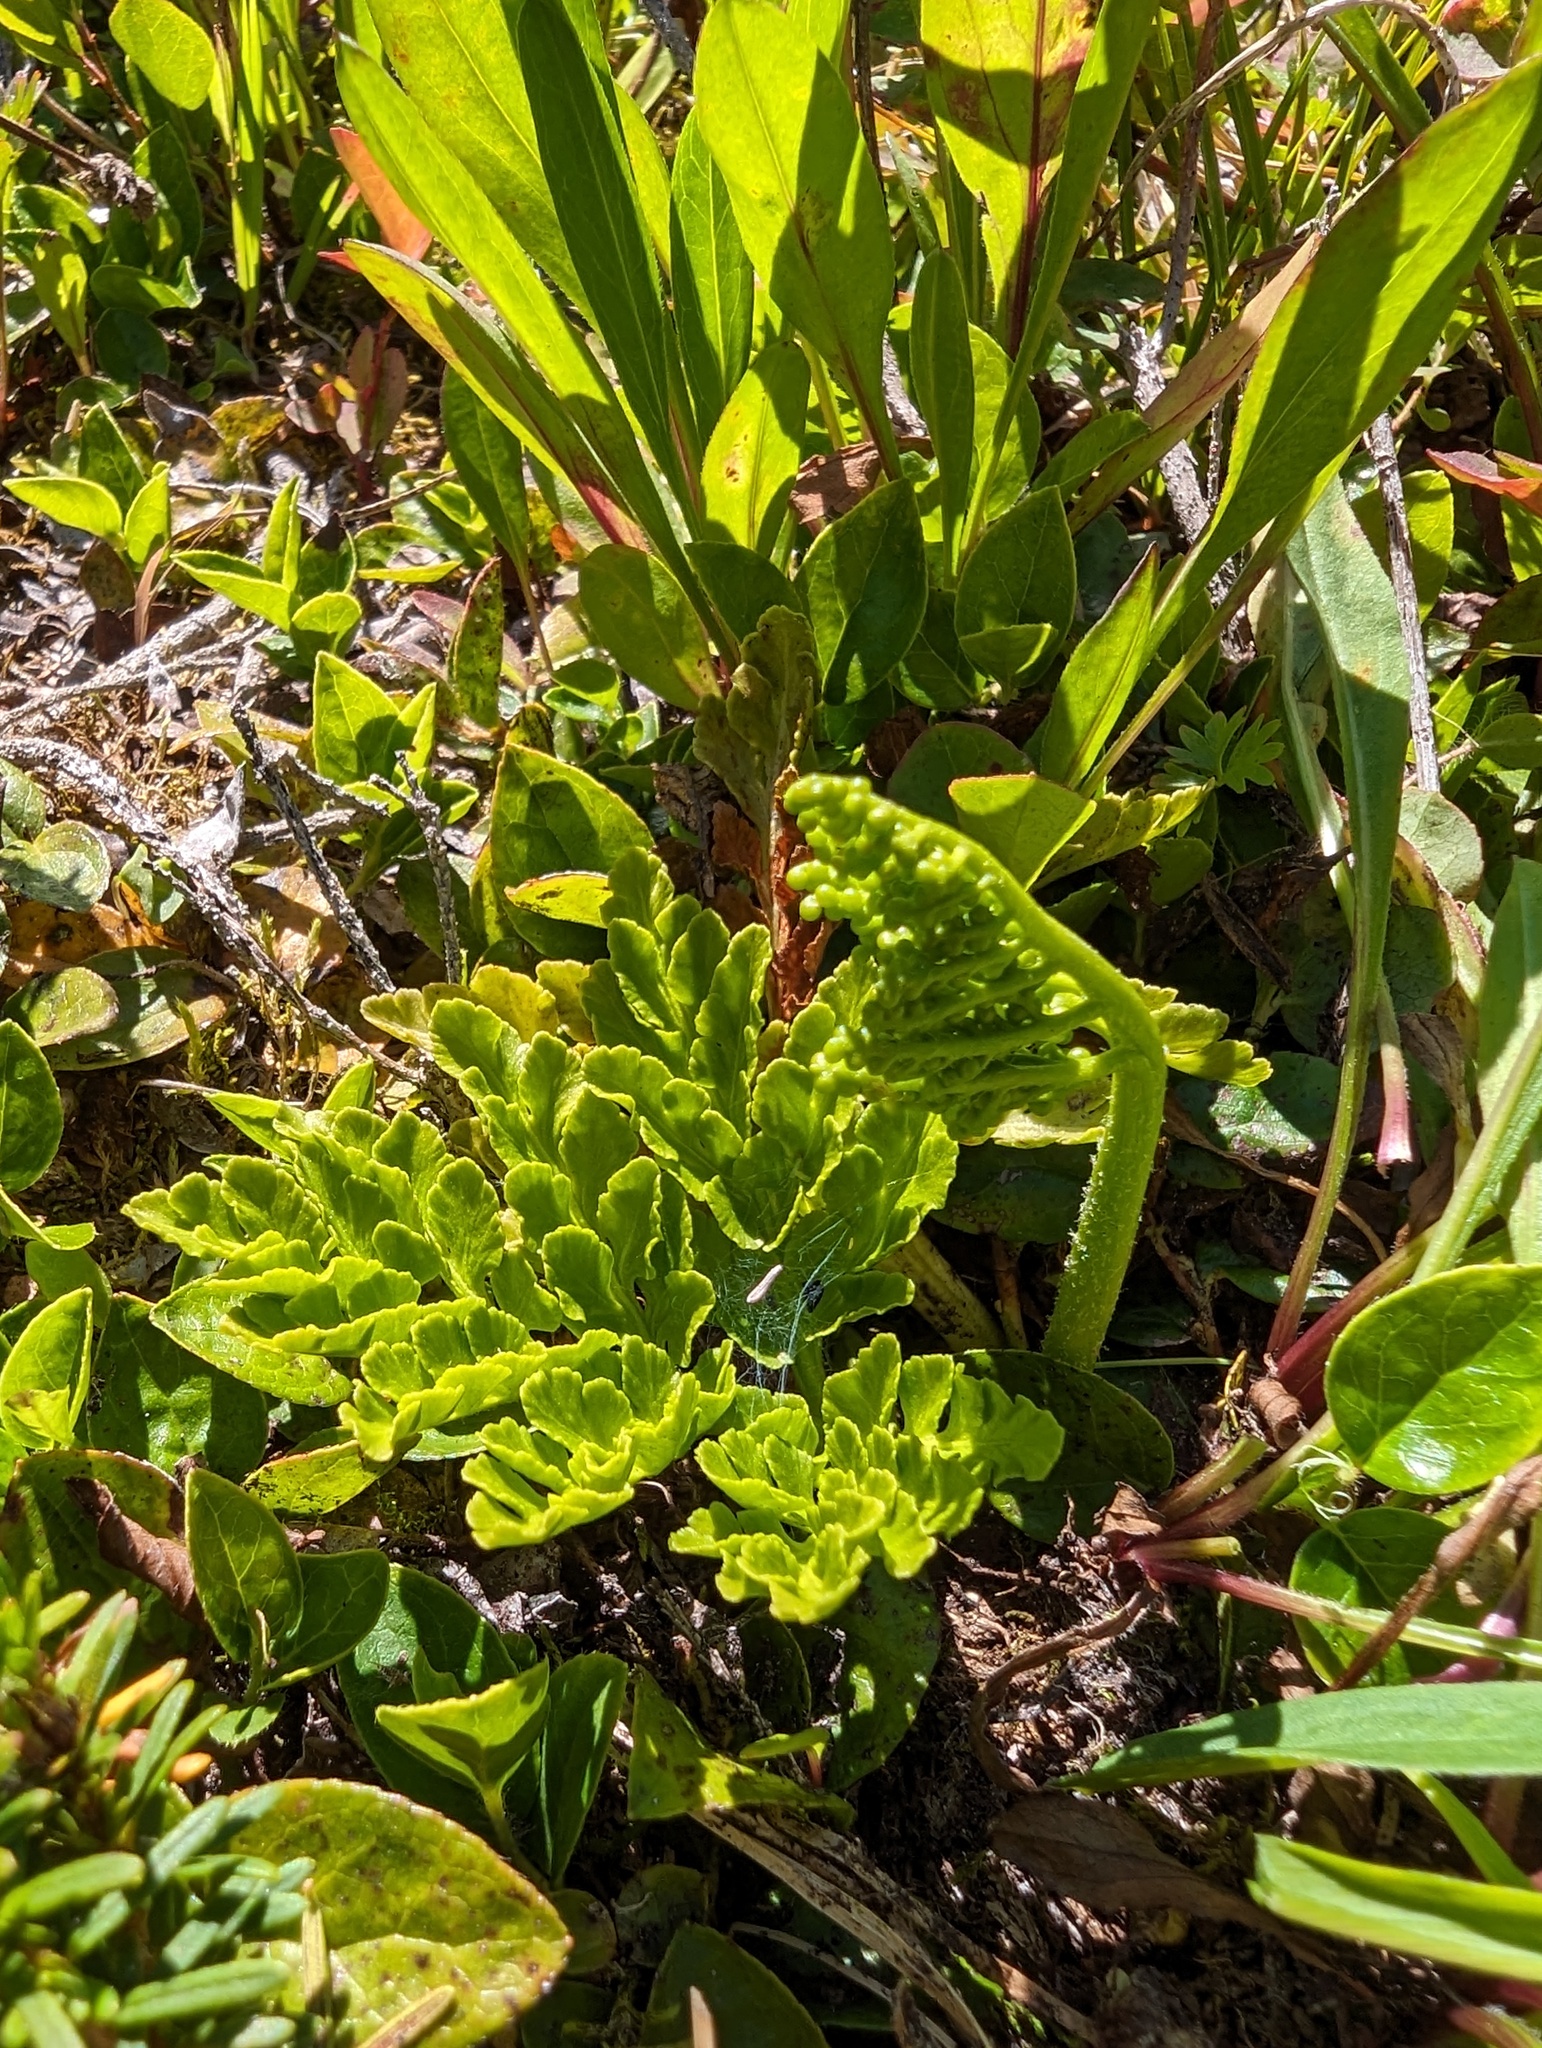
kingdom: Plantae
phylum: Tracheophyta
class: Polypodiopsida
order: Ophioglossales
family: Ophioglossaceae
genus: Sceptridium
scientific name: Sceptridium multifidum
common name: Leathery grape fern
